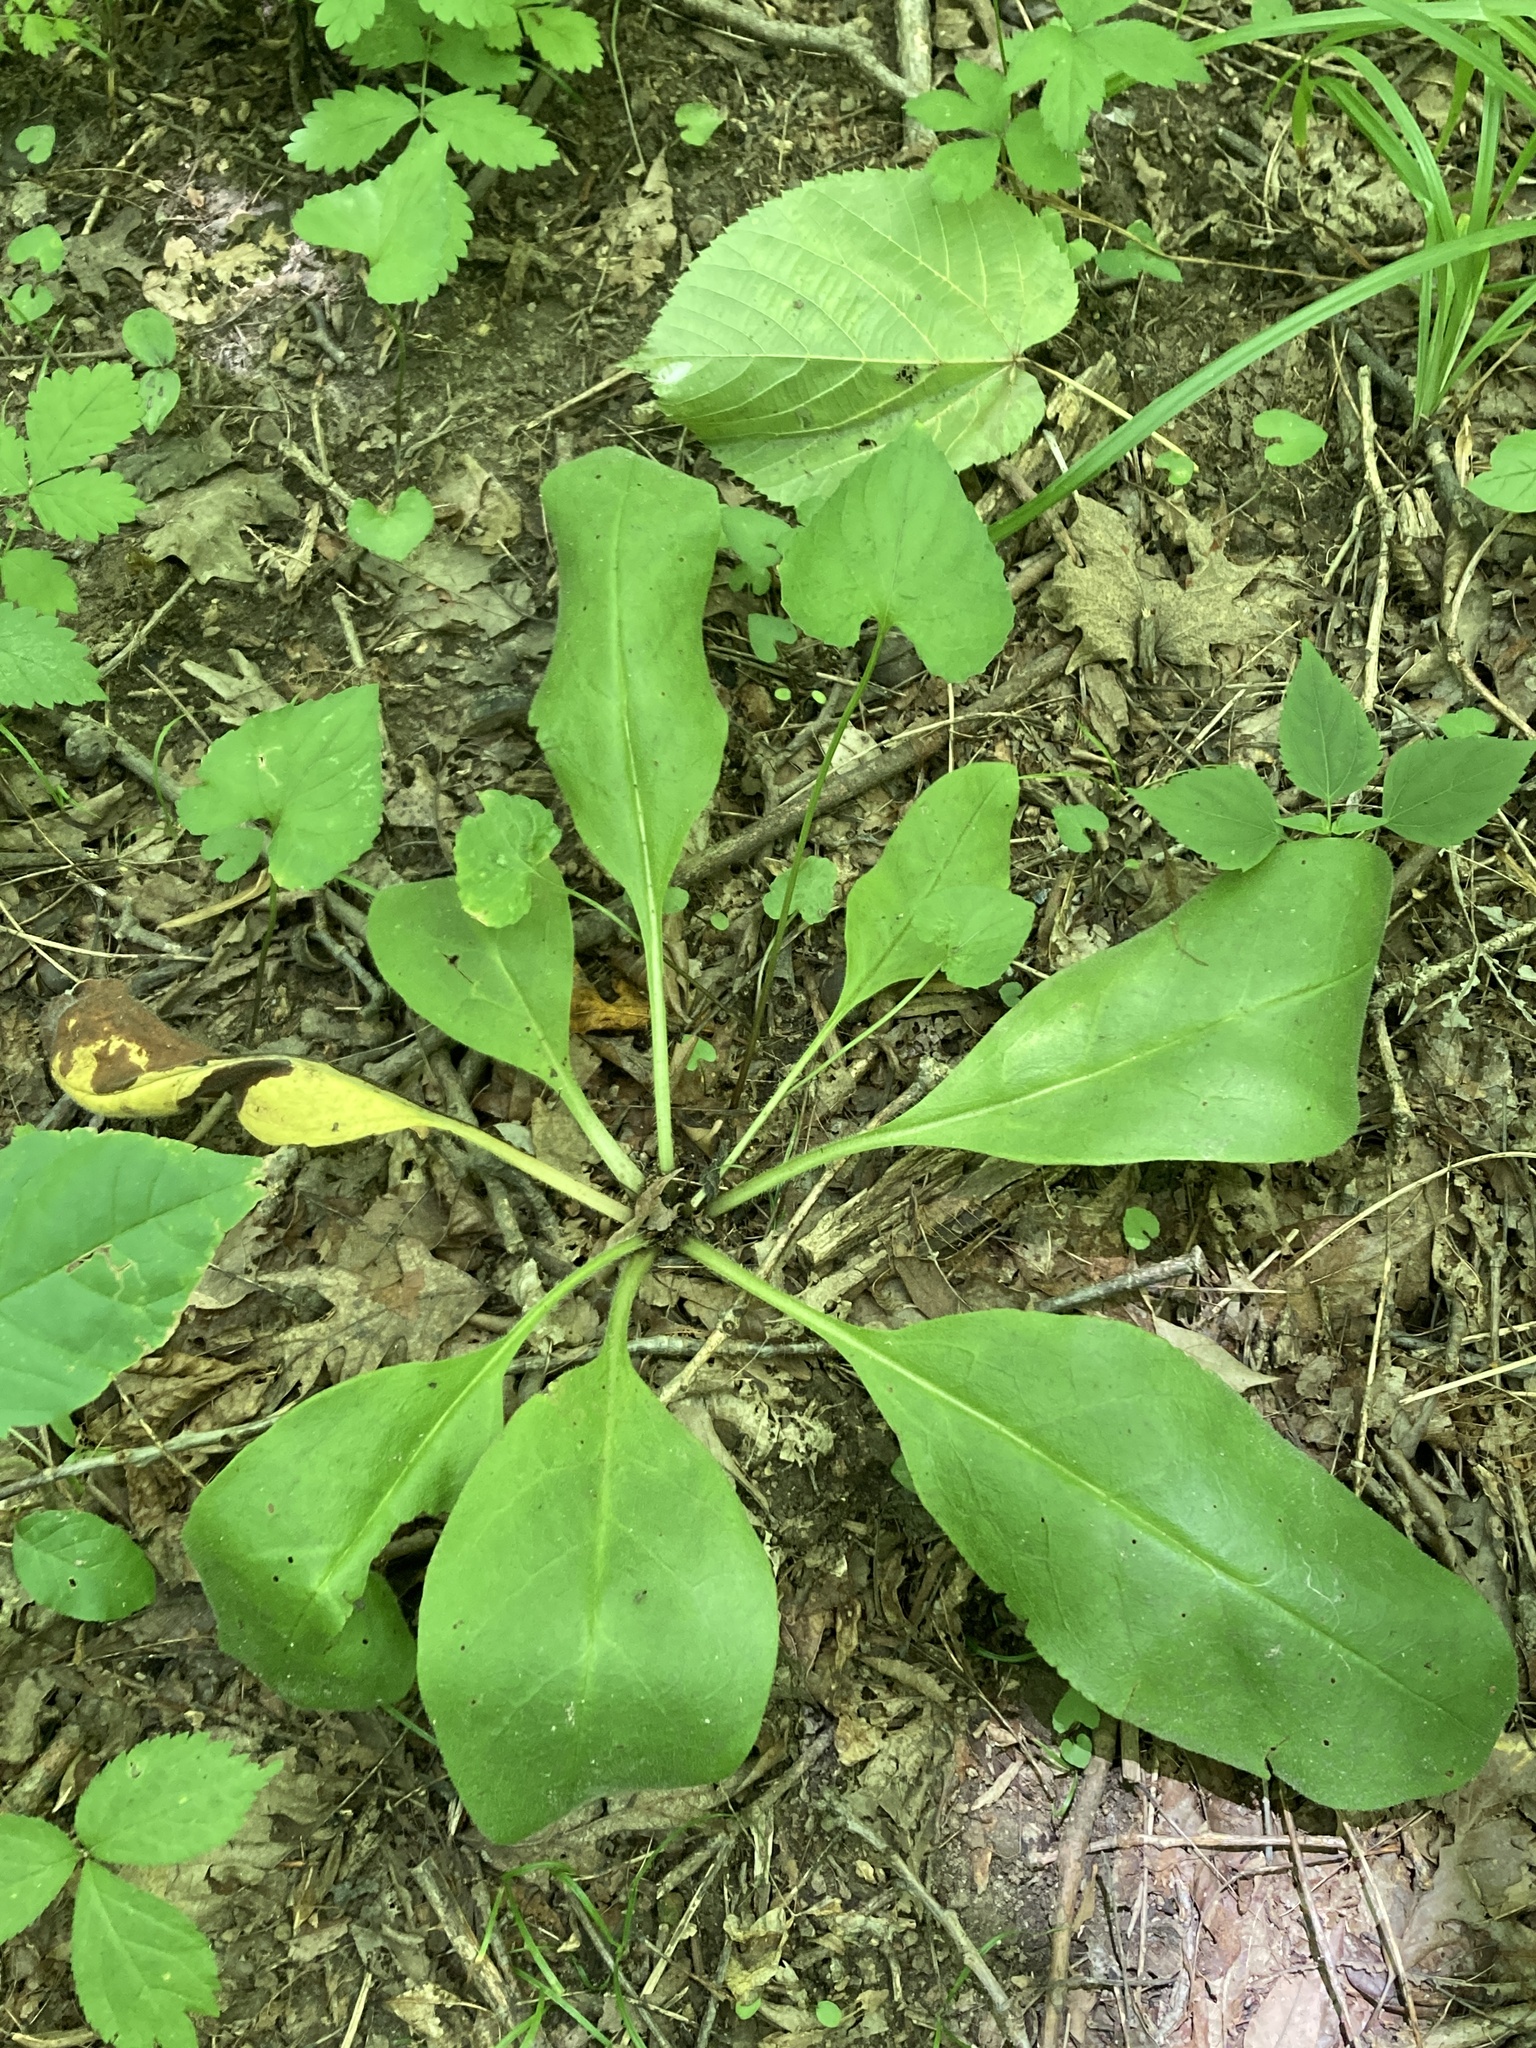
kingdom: Plantae
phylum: Tracheophyta
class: Magnoliopsida
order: Boraginales
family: Boraginaceae
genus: Andersonglossum
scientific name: Andersonglossum virginianum
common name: Wild comfrey
